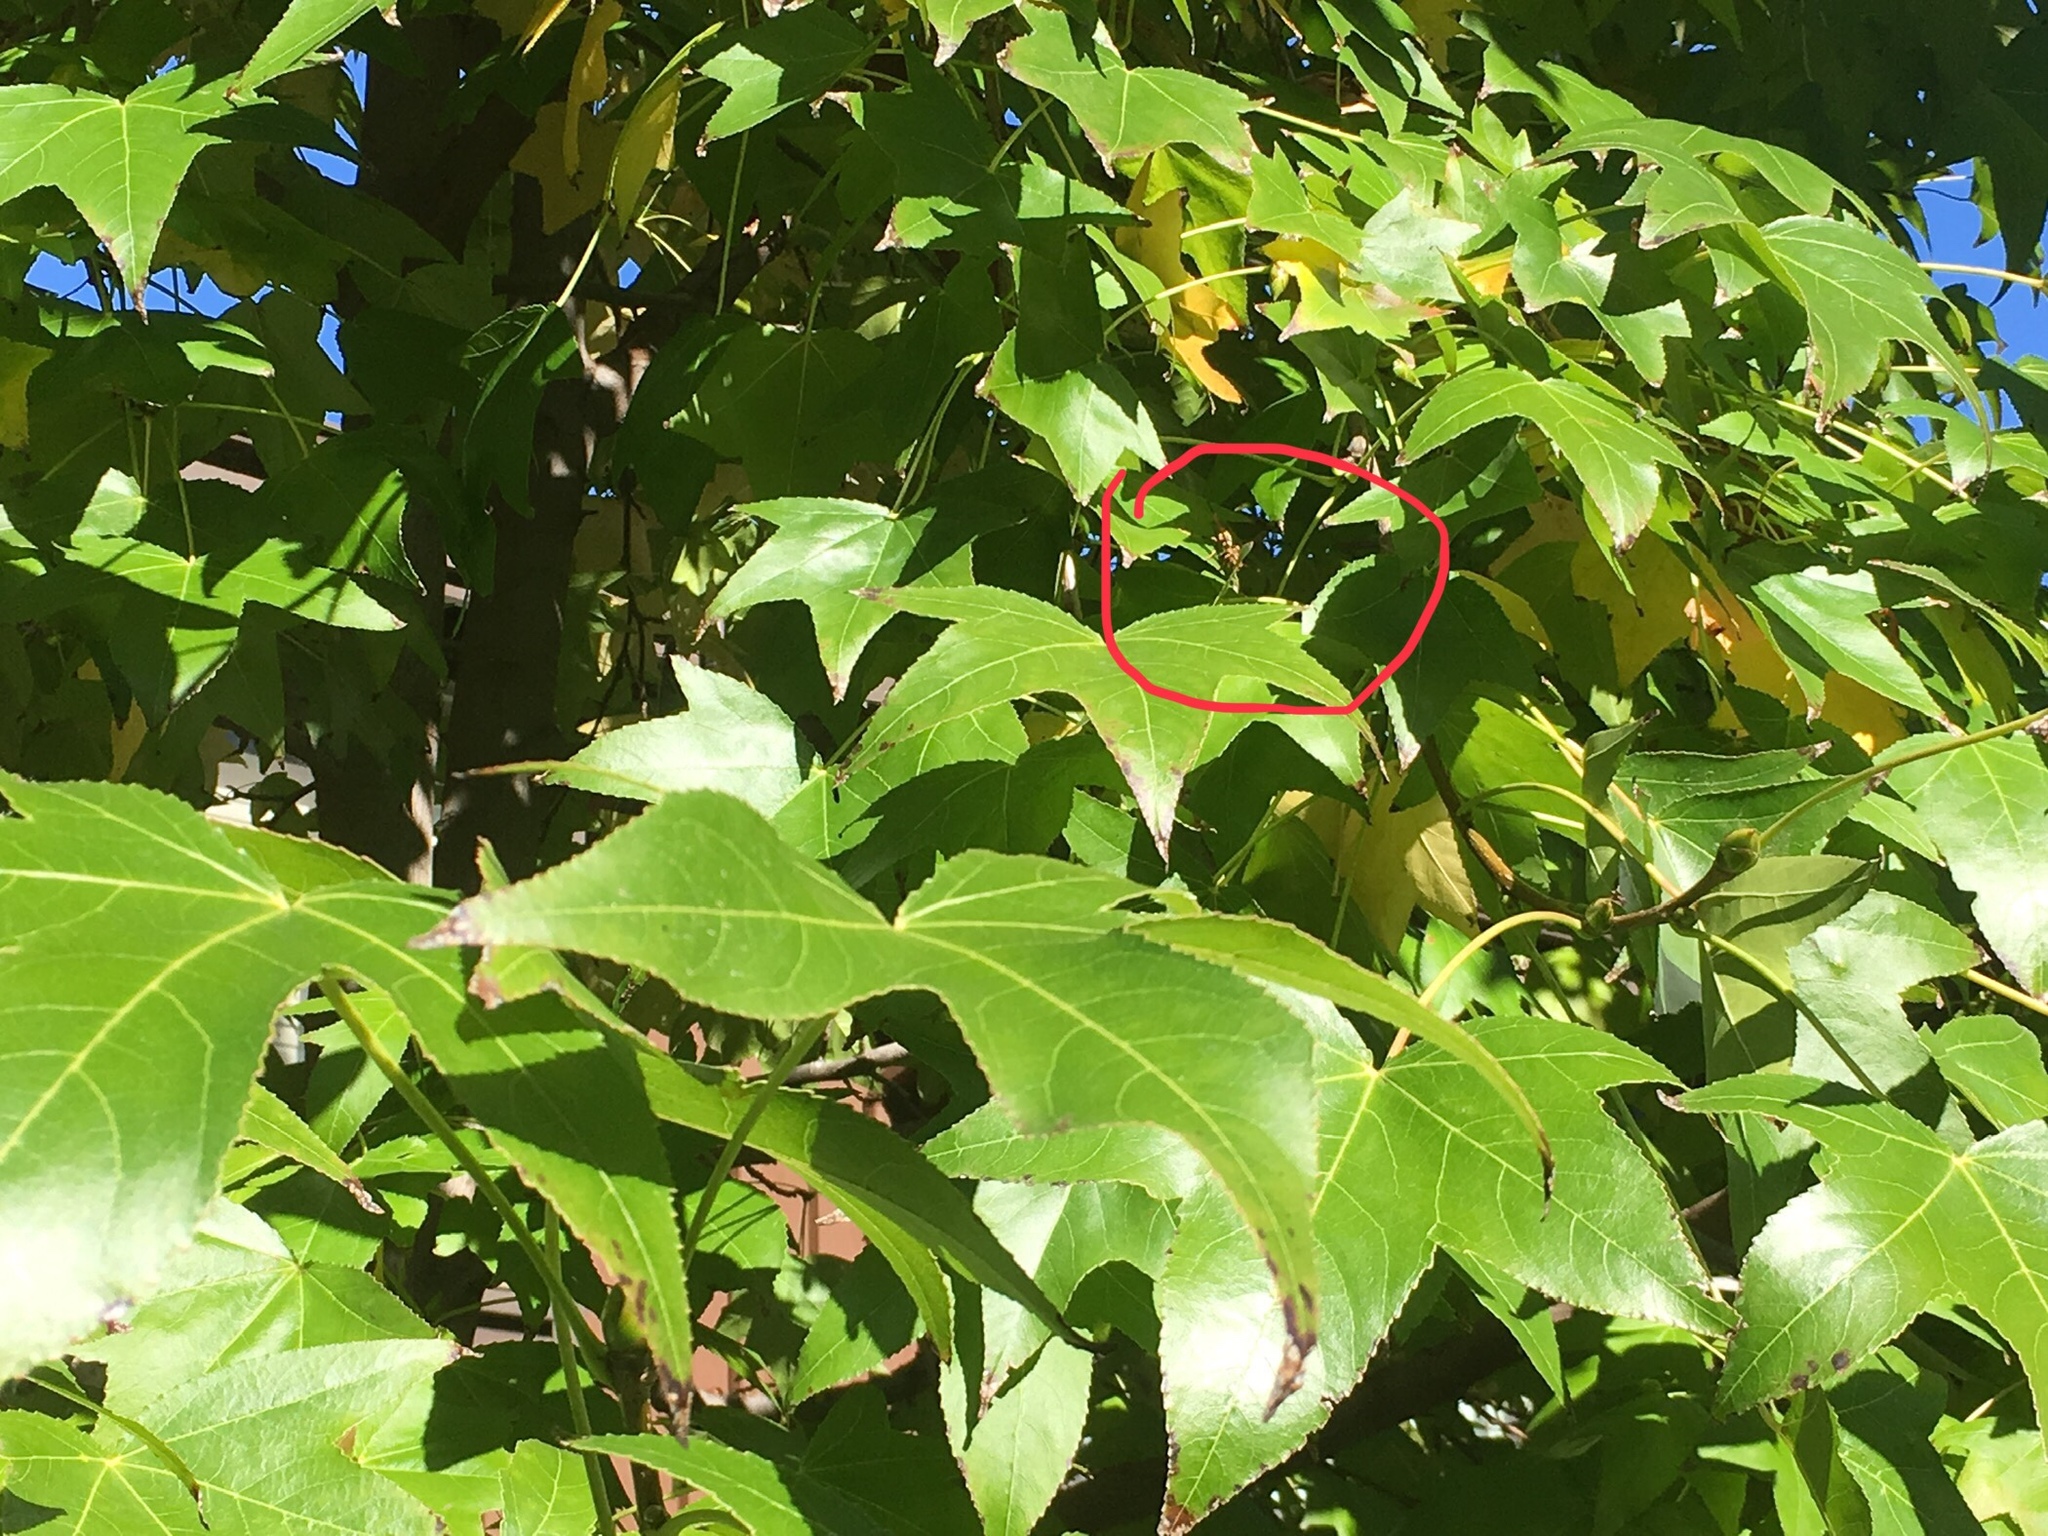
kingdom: Animalia
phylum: Arthropoda
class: Insecta
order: Hymenoptera
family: Eumenidae
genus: Polistes
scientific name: Polistes
